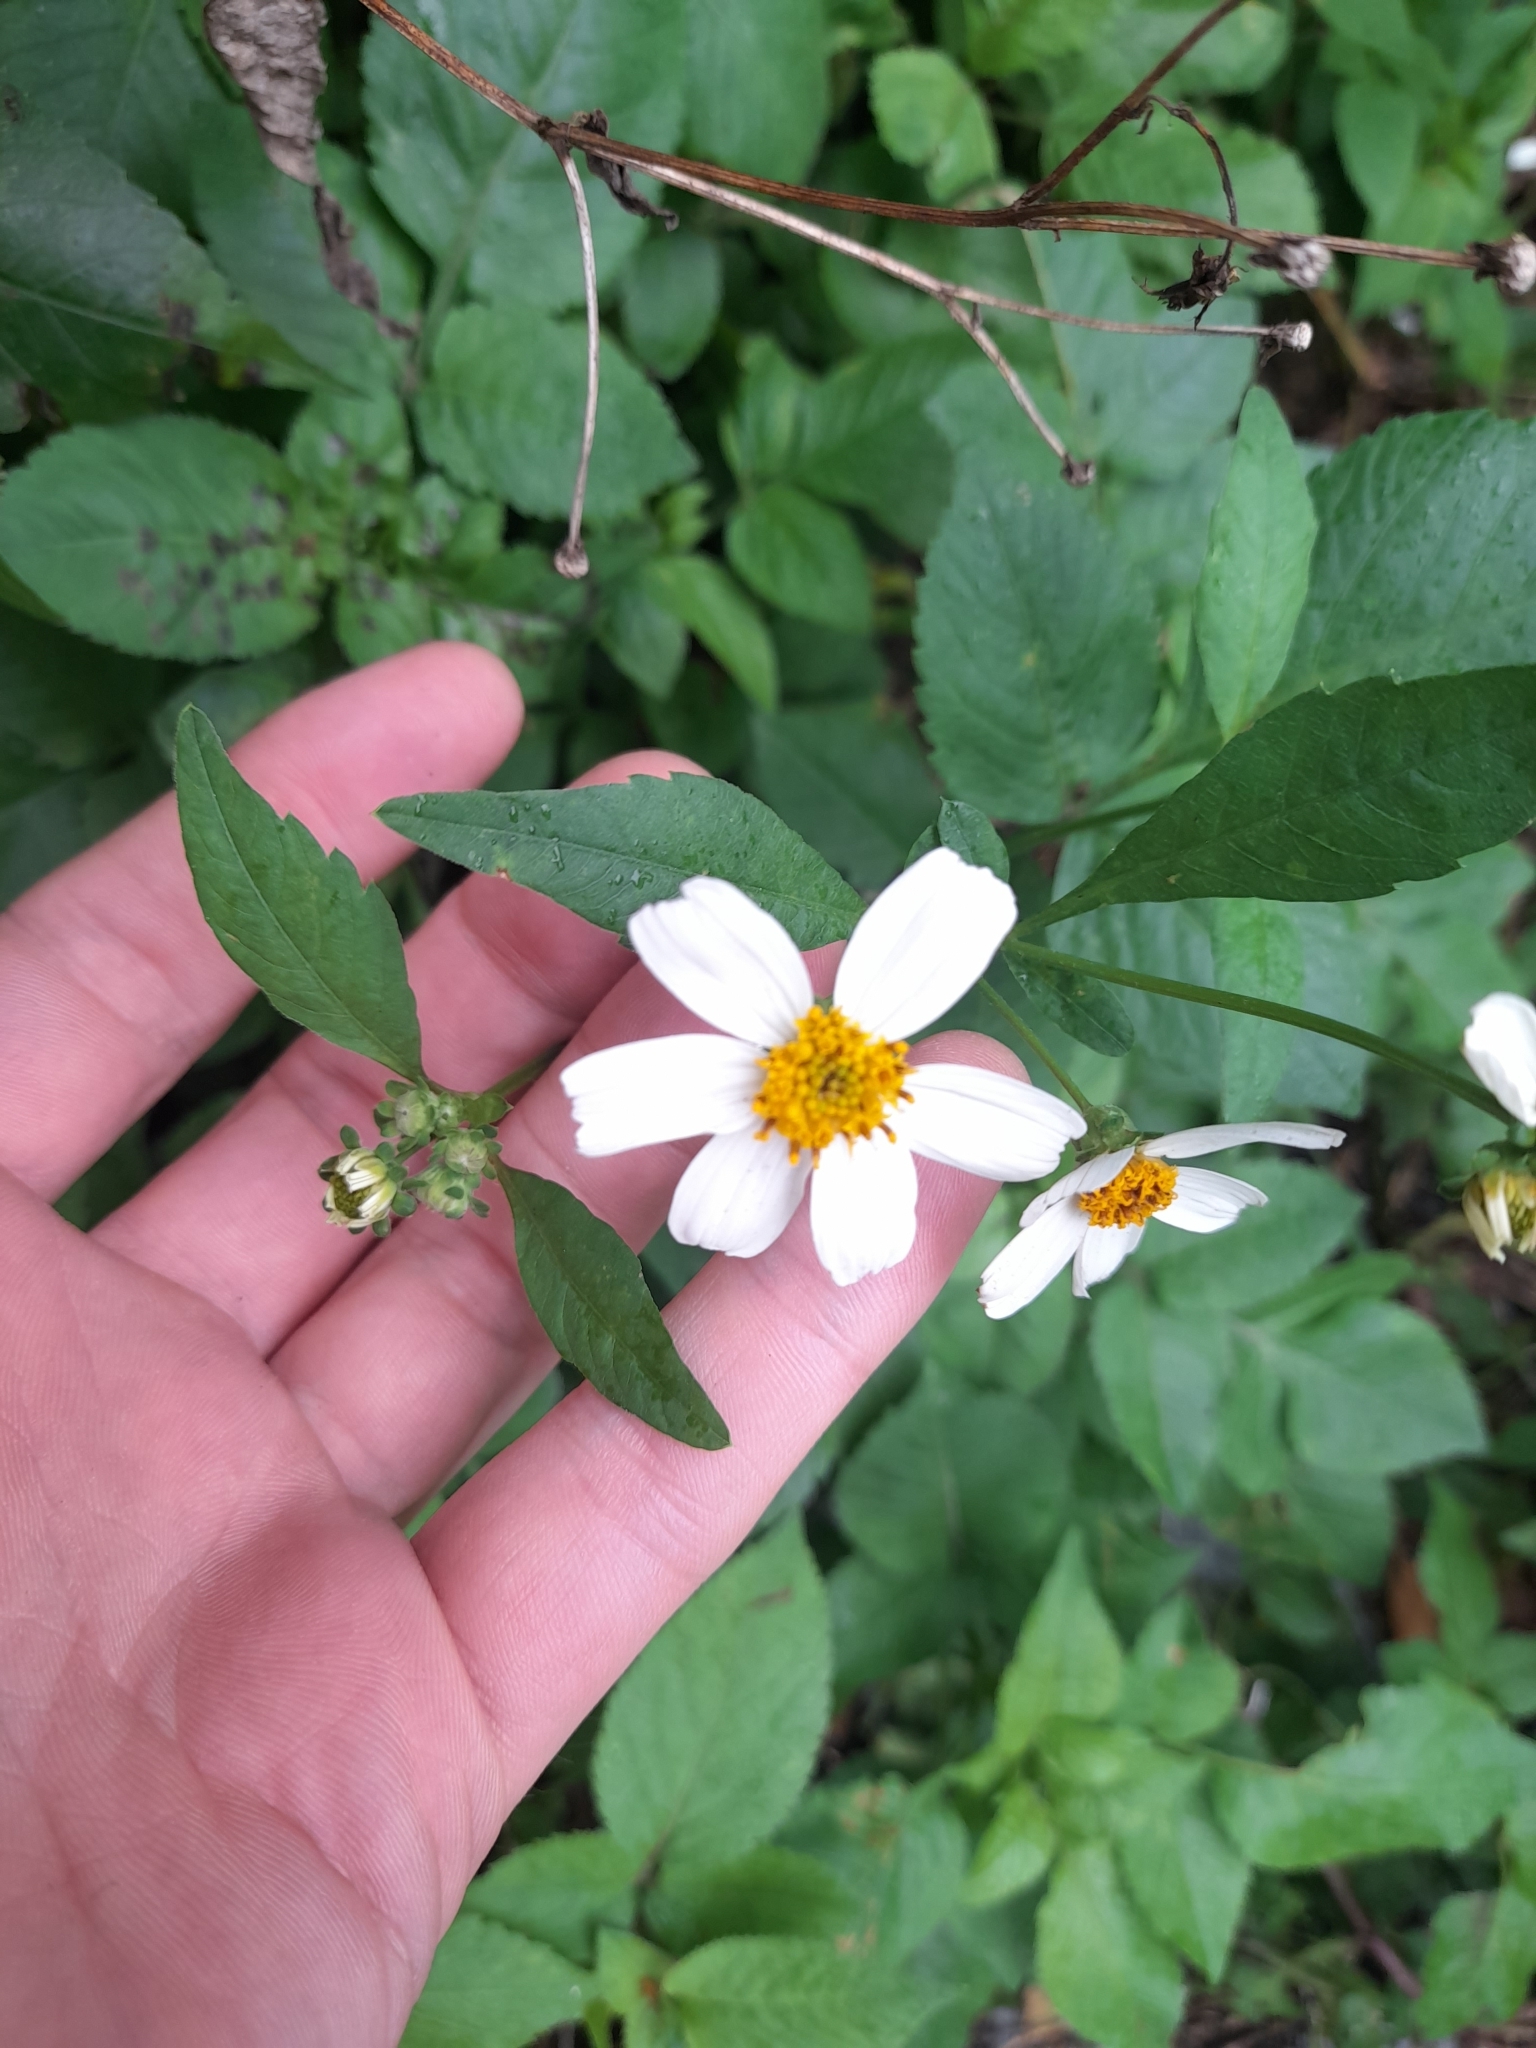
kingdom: Plantae
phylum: Tracheophyta
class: Magnoliopsida
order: Asterales
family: Asteraceae
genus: Bidens
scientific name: Bidens alba
